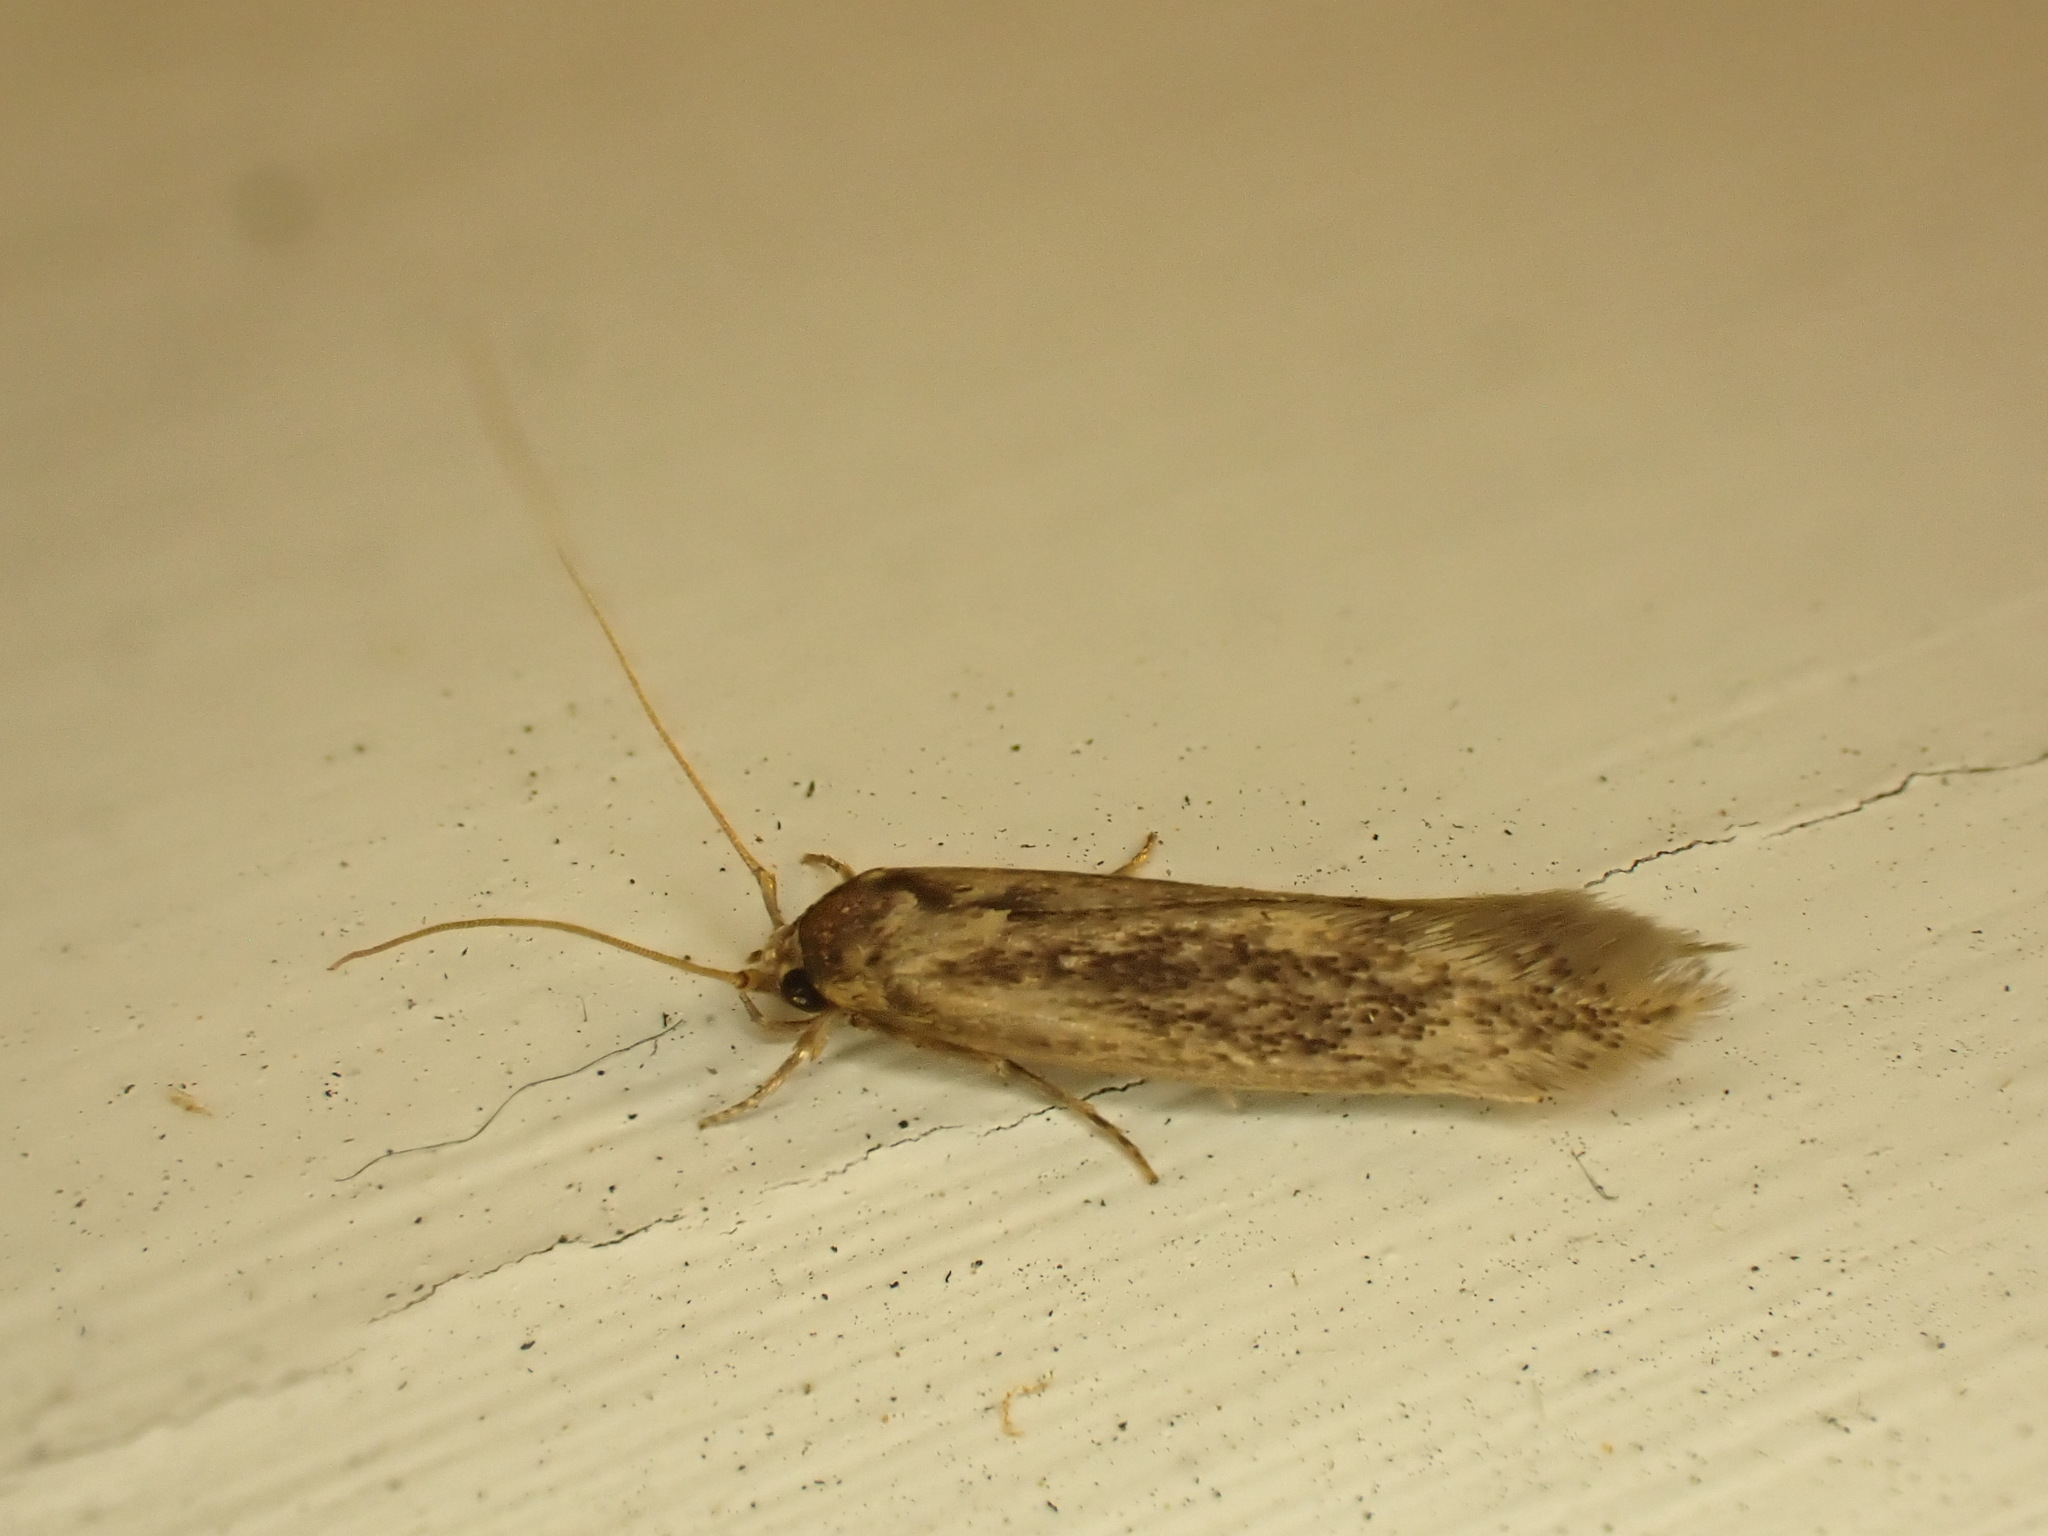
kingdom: Animalia
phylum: Arthropoda
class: Insecta
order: Lepidoptera
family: Tineidae
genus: Opogona
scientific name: Opogona omoscopa
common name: Moth
